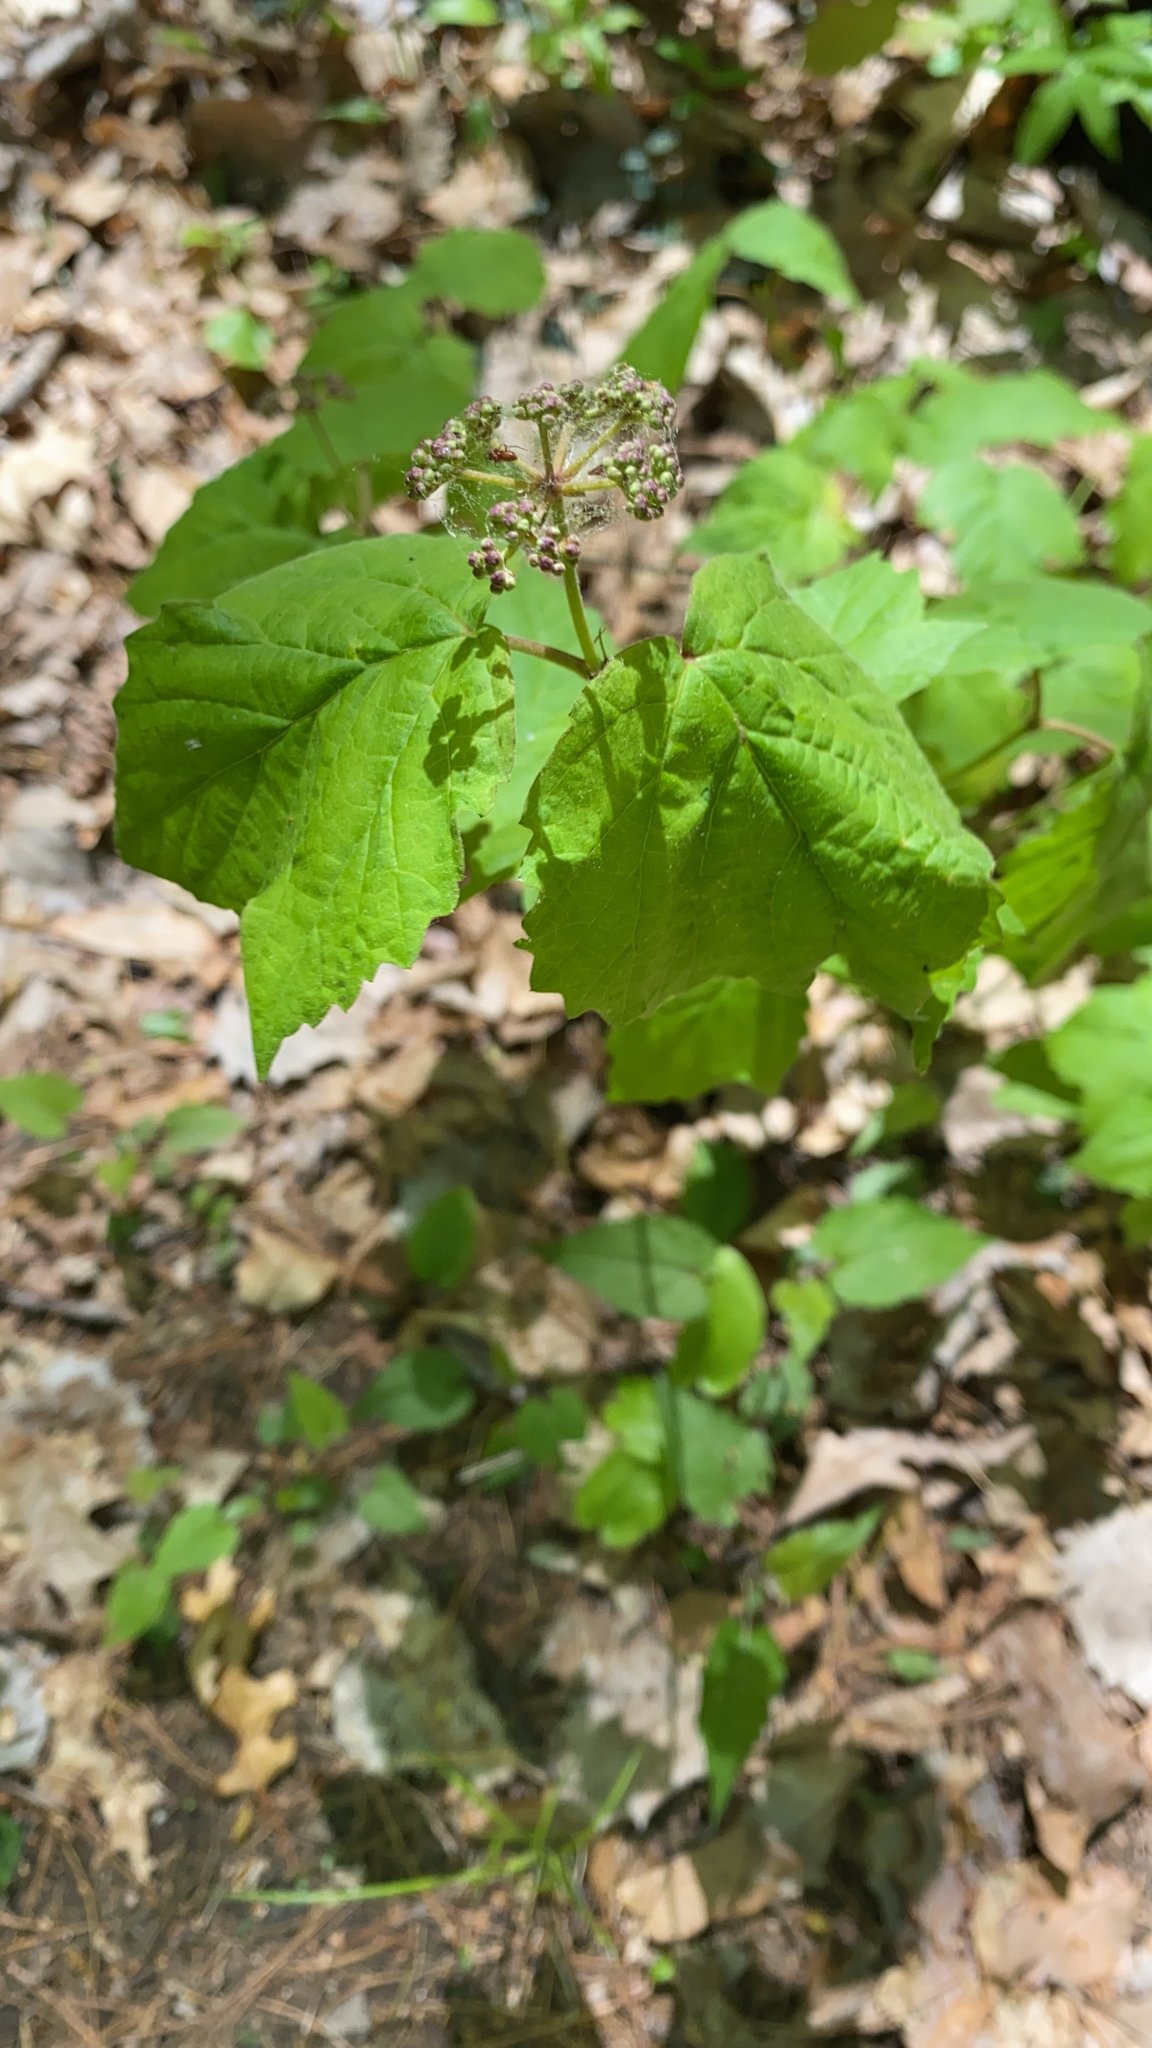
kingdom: Plantae
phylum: Tracheophyta
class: Magnoliopsida
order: Dipsacales
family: Viburnaceae
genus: Viburnum
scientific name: Viburnum acerifolium
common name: Dockmackie
